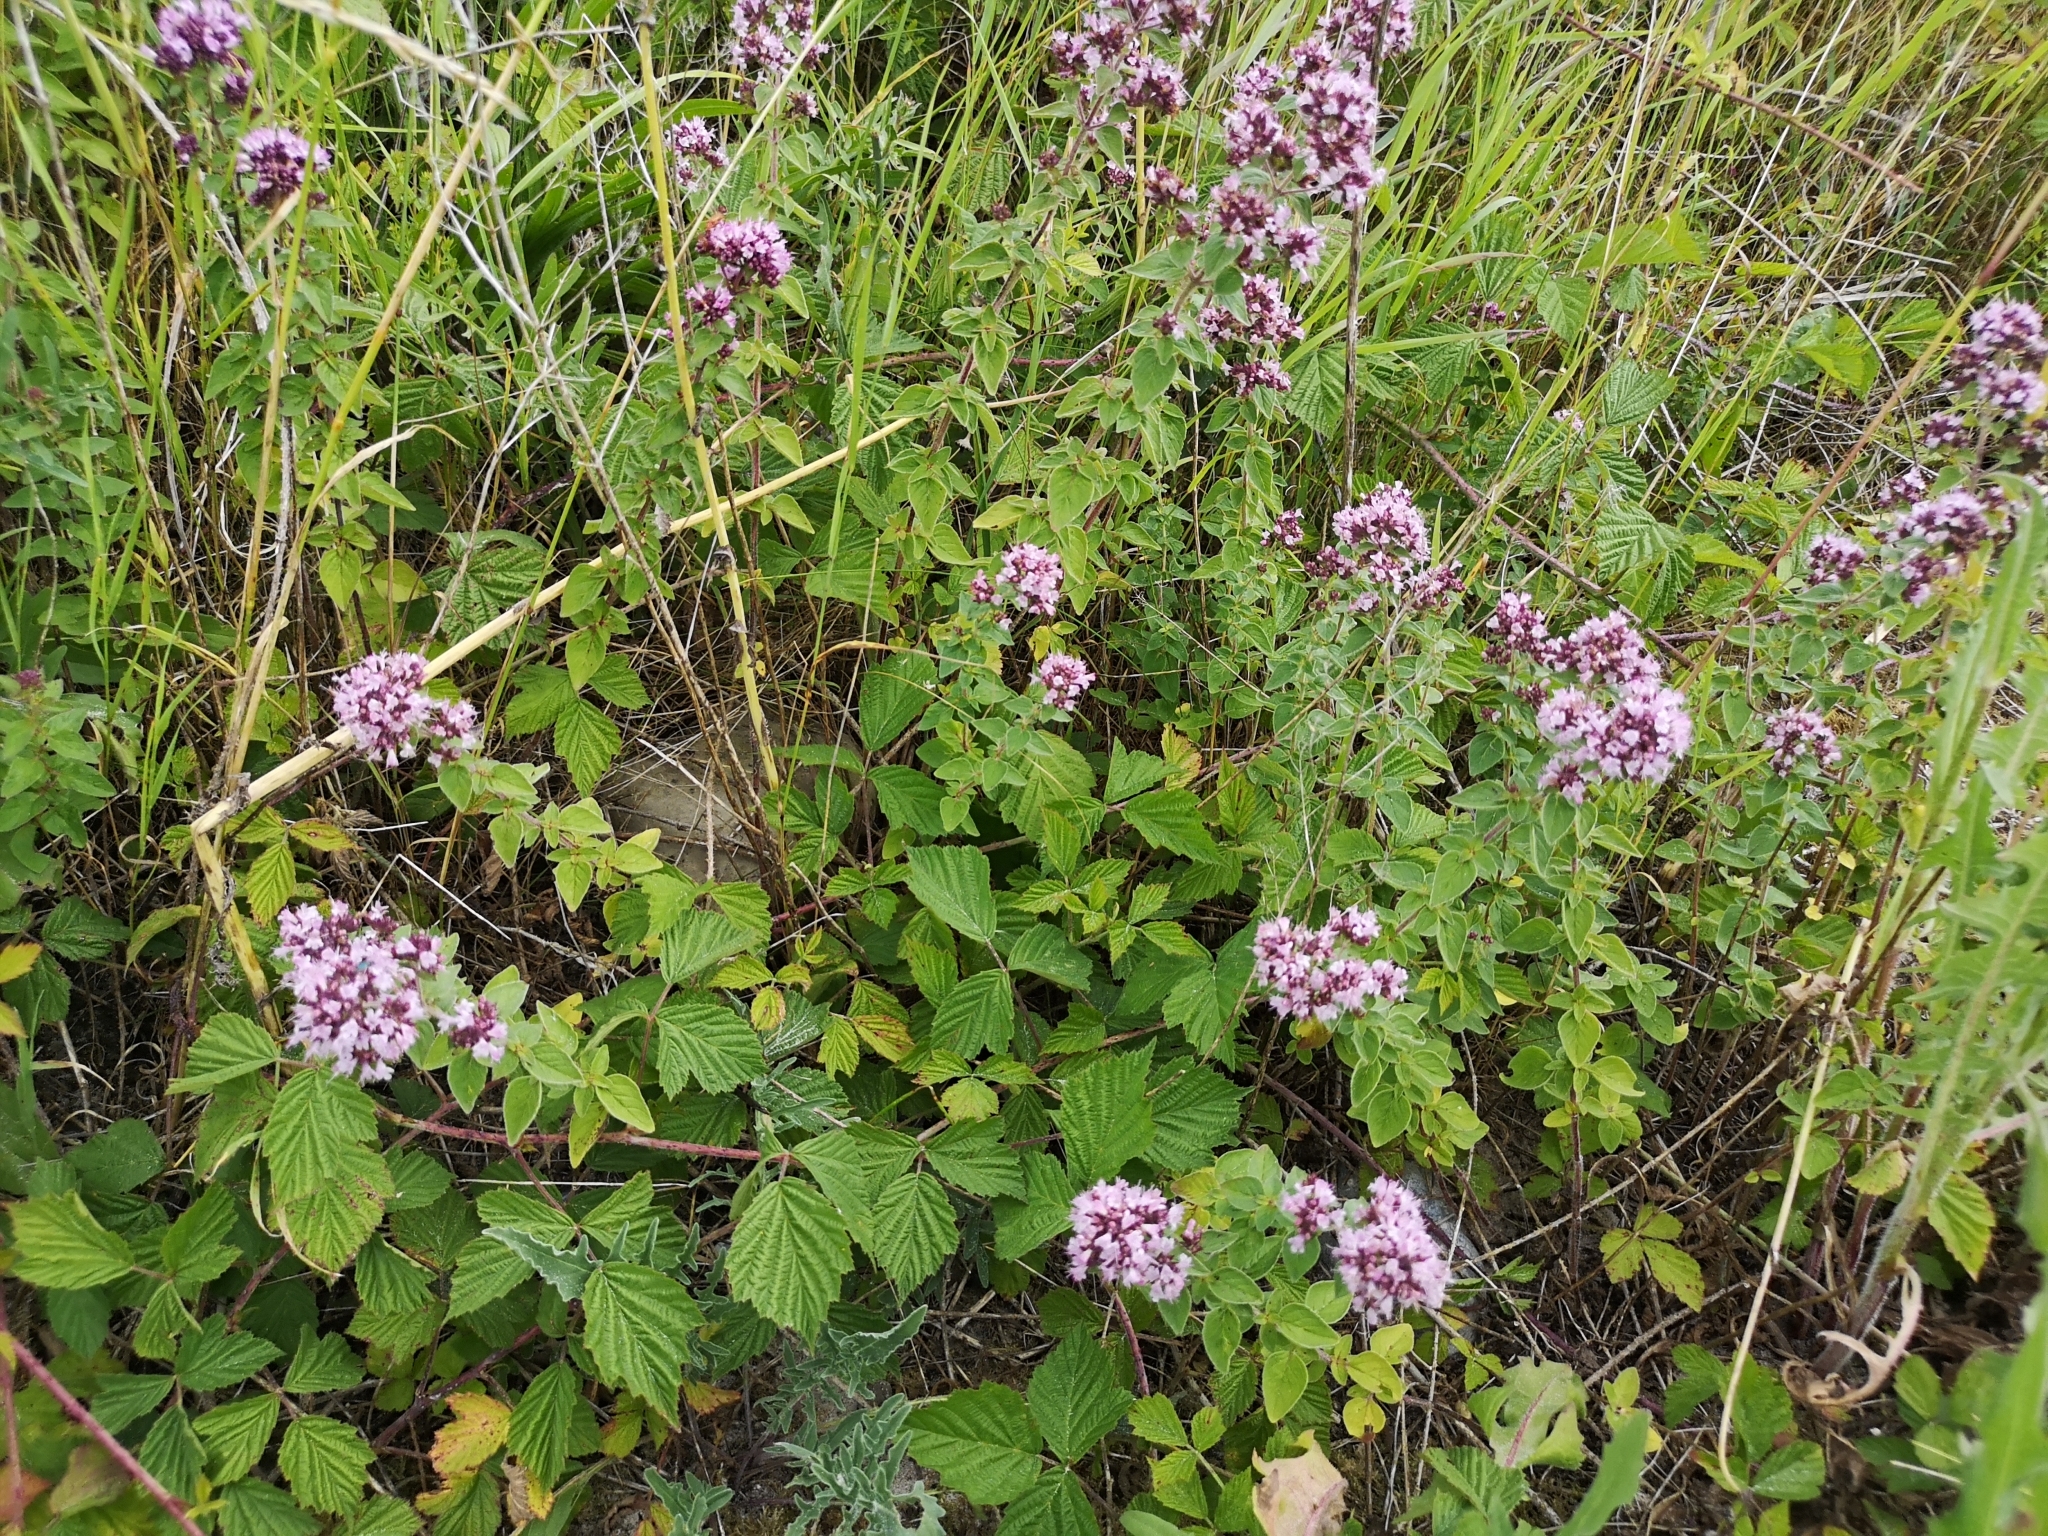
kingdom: Plantae
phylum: Tracheophyta
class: Magnoliopsida
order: Lamiales
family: Lamiaceae
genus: Origanum
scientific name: Origanum vulgare
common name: Wild marjoram
